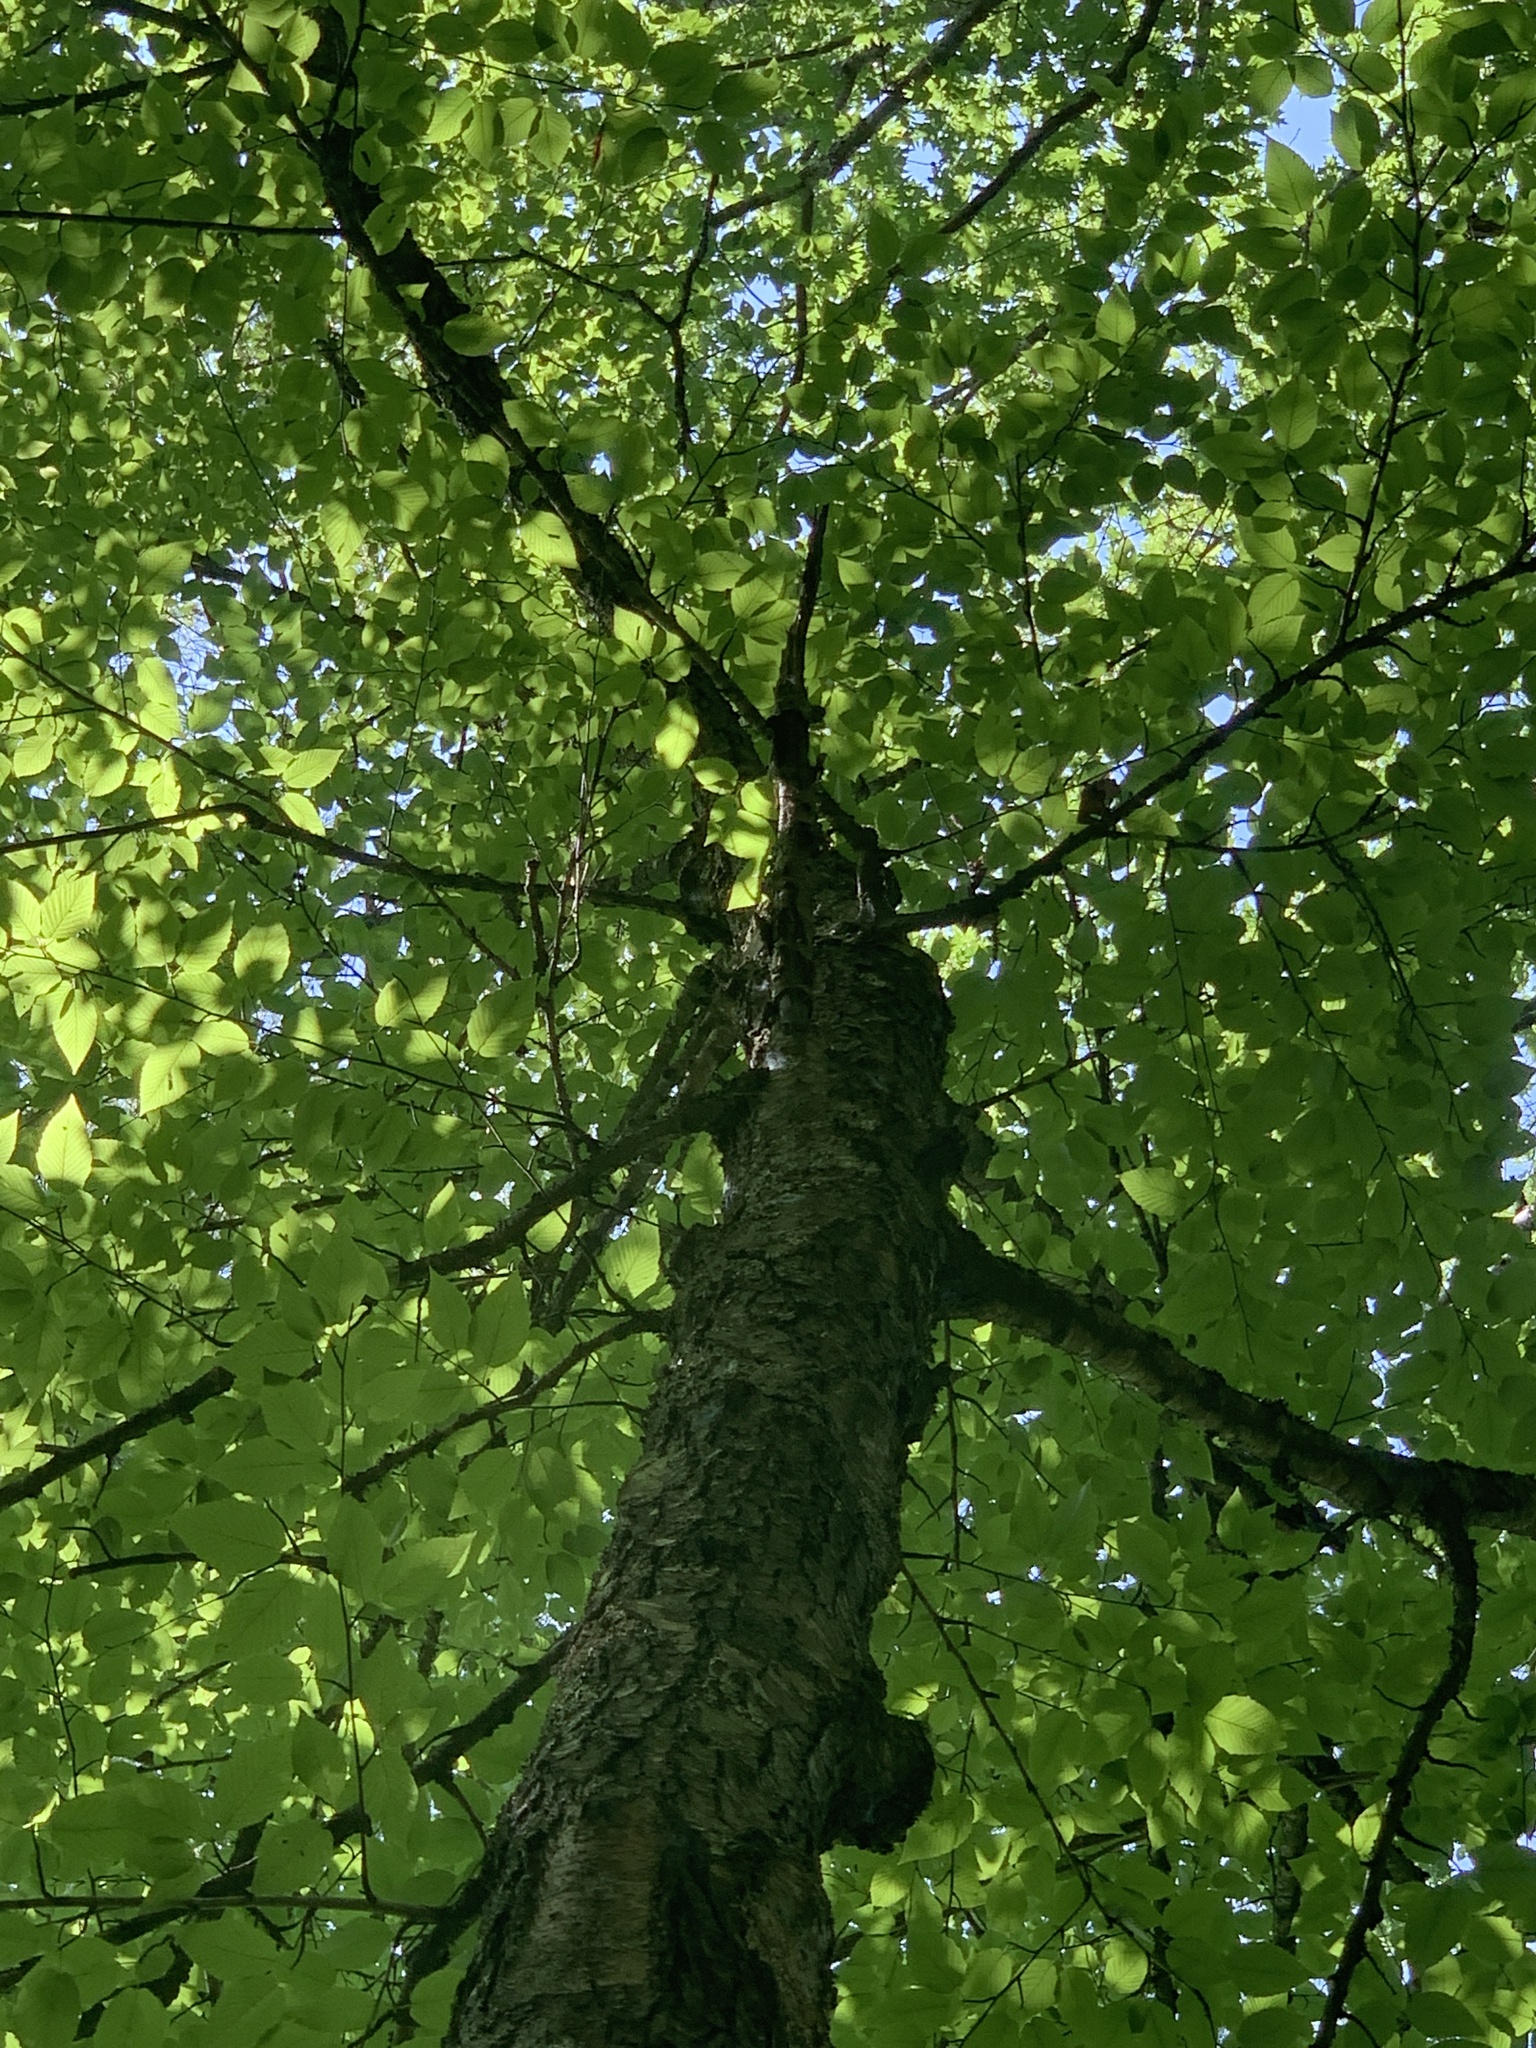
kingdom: Plantae
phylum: Tracheophyta
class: Magnoliopsida
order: Fagales
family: Betulaceae
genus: Betula
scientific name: Betula lenta
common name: Black birch
